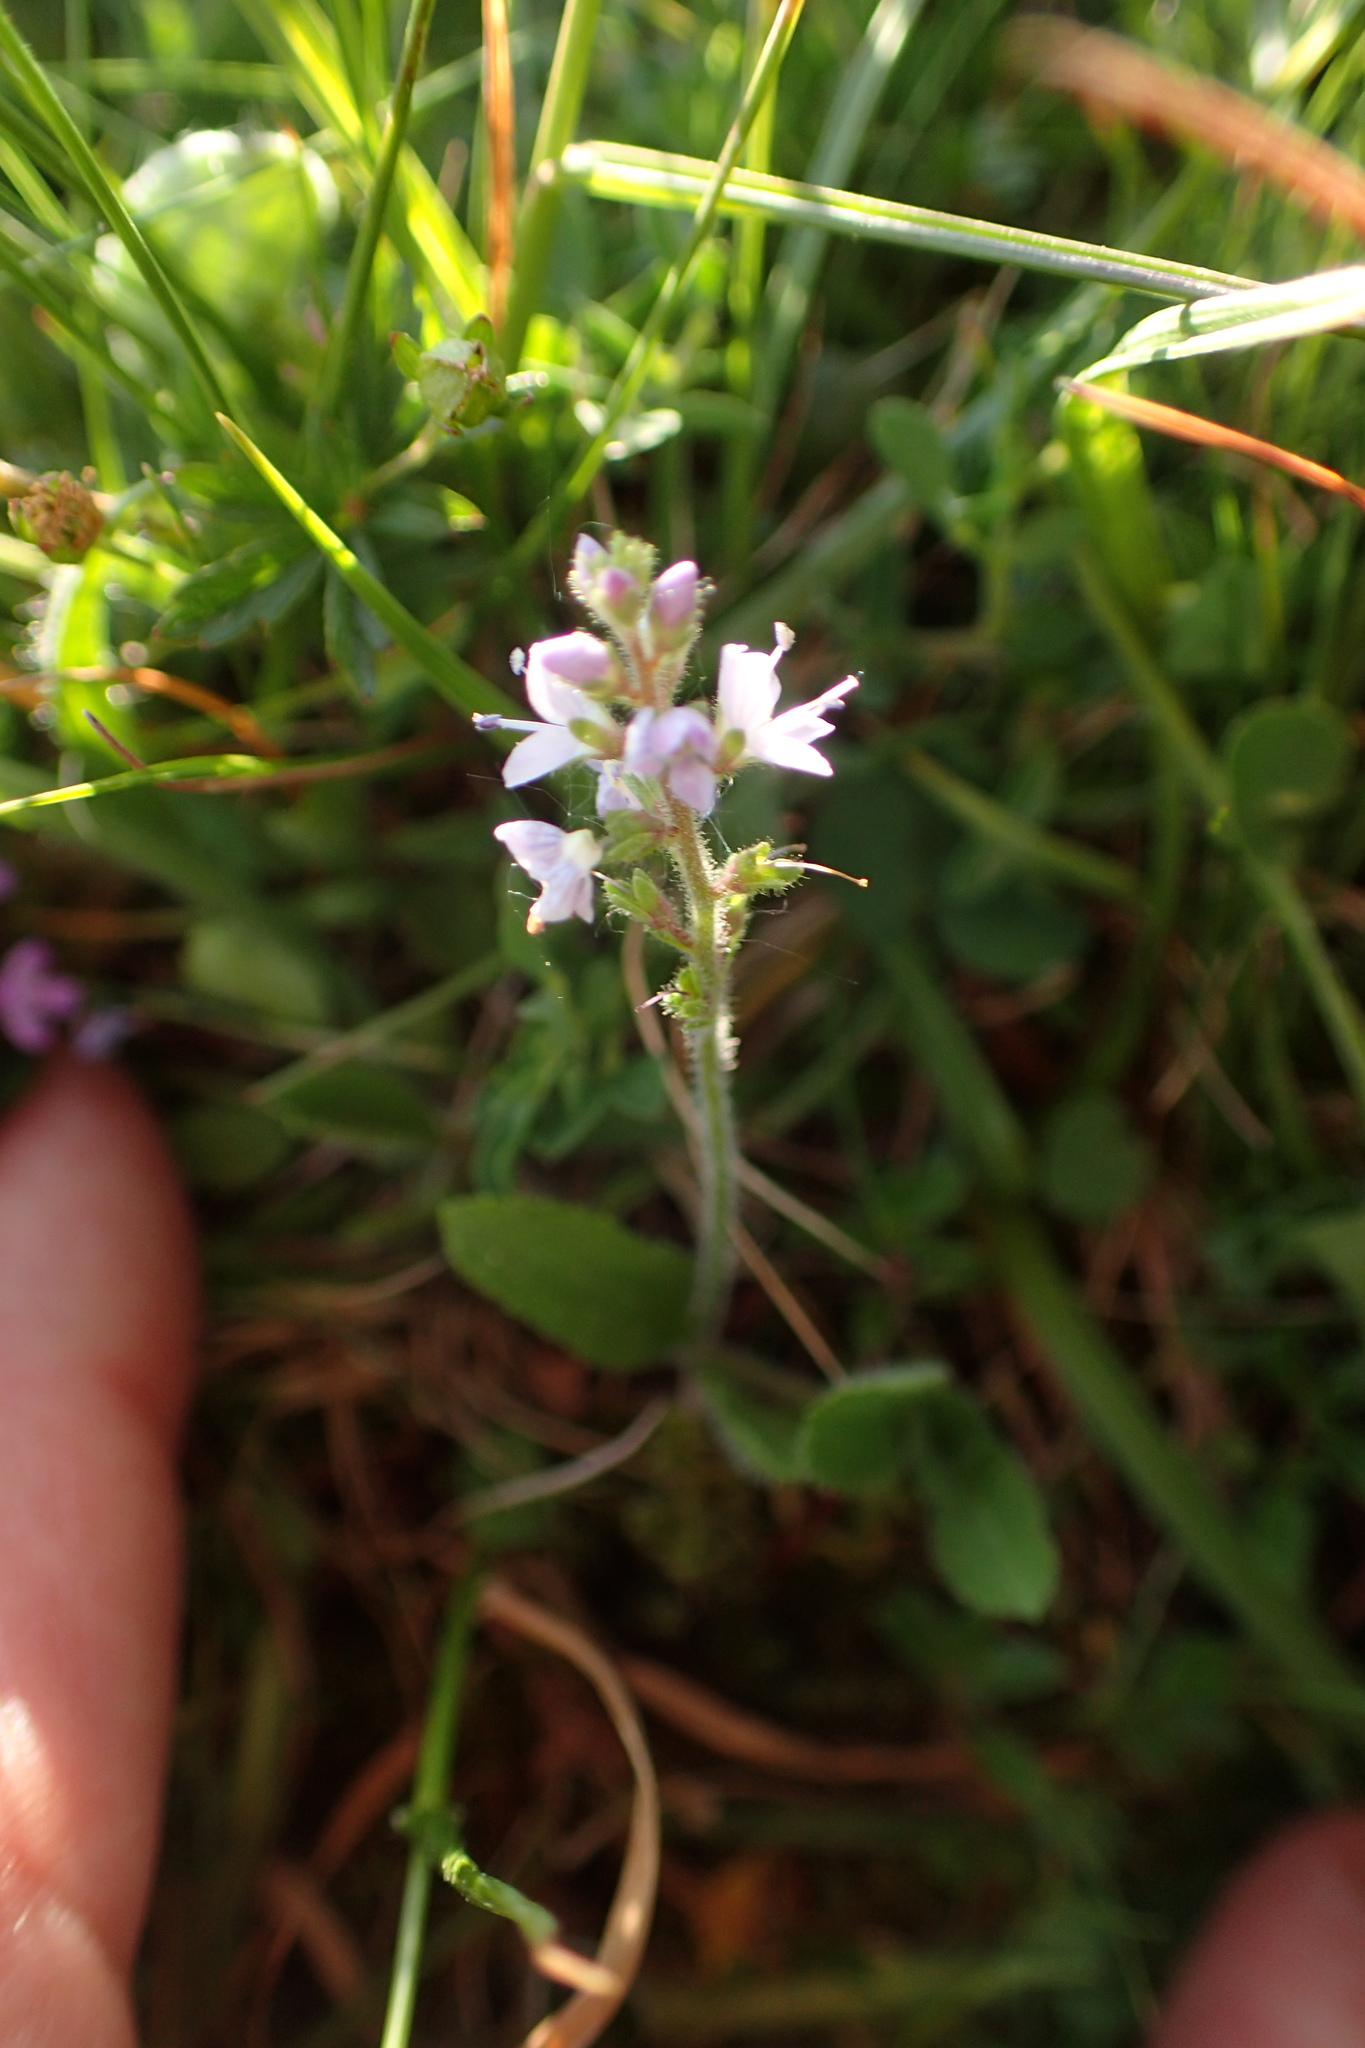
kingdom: Plantae
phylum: Tracheophyta
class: Magnoliopsida
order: Lamiales
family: Plantaginaceae
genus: Veronica
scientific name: Veronica officinalis
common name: Common speedwell
